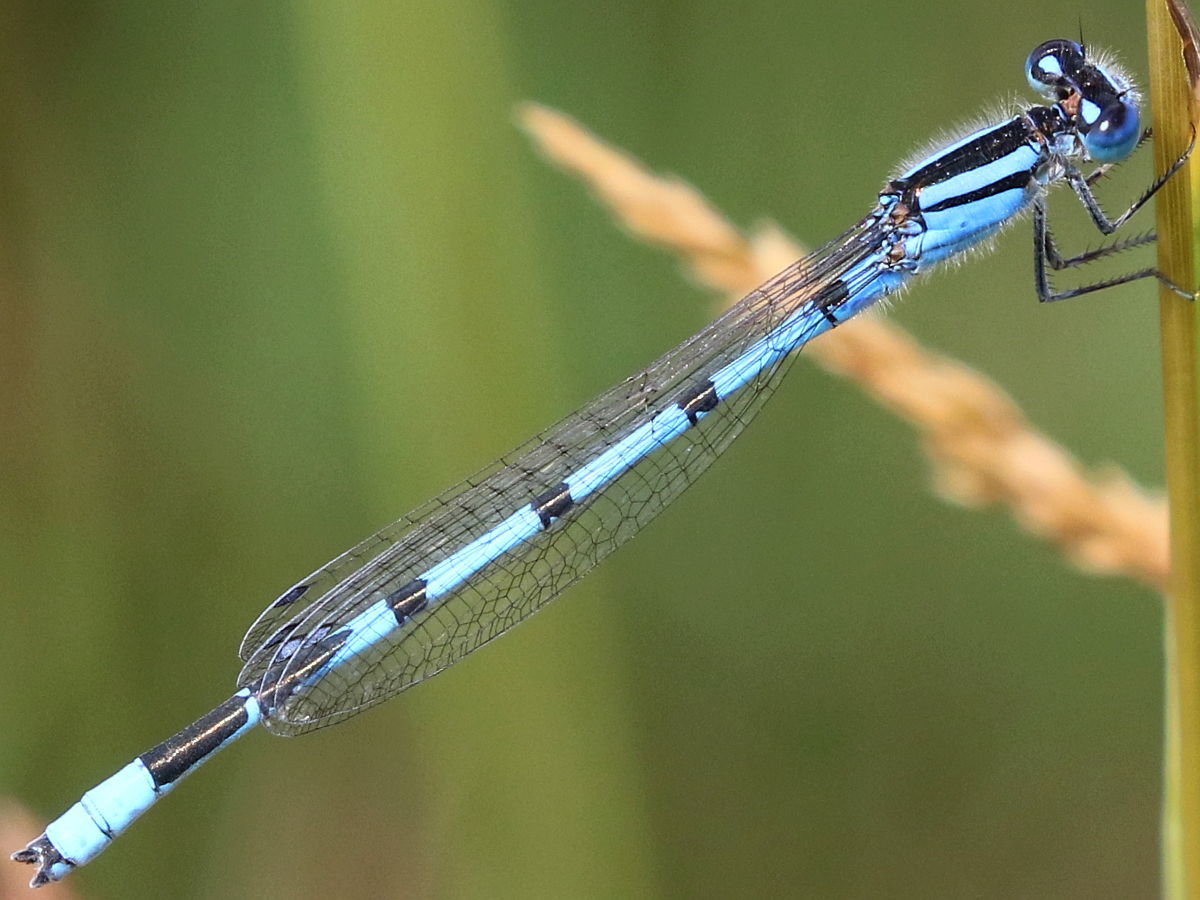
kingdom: Animalia
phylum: Arthropoda
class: Insecta
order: Odonata
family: Coenagrionidae
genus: Enallagma
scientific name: Enallagma civile
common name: Damselfly
